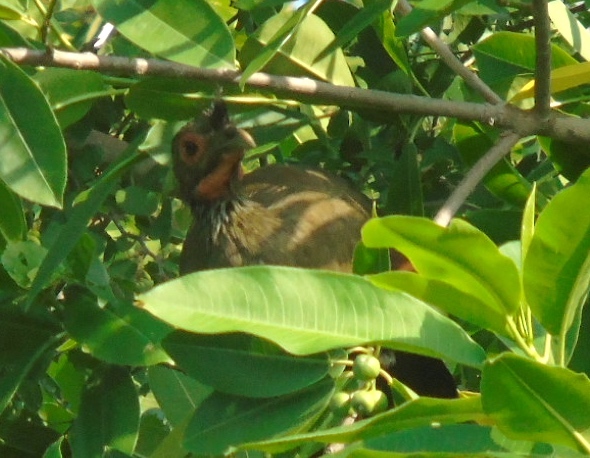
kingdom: Animalia
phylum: Chordata
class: Aves
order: Galliformes
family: Cracidae
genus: Ortalis
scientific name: Ortalis wagleri
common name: Rufous-bellied chachalaca
